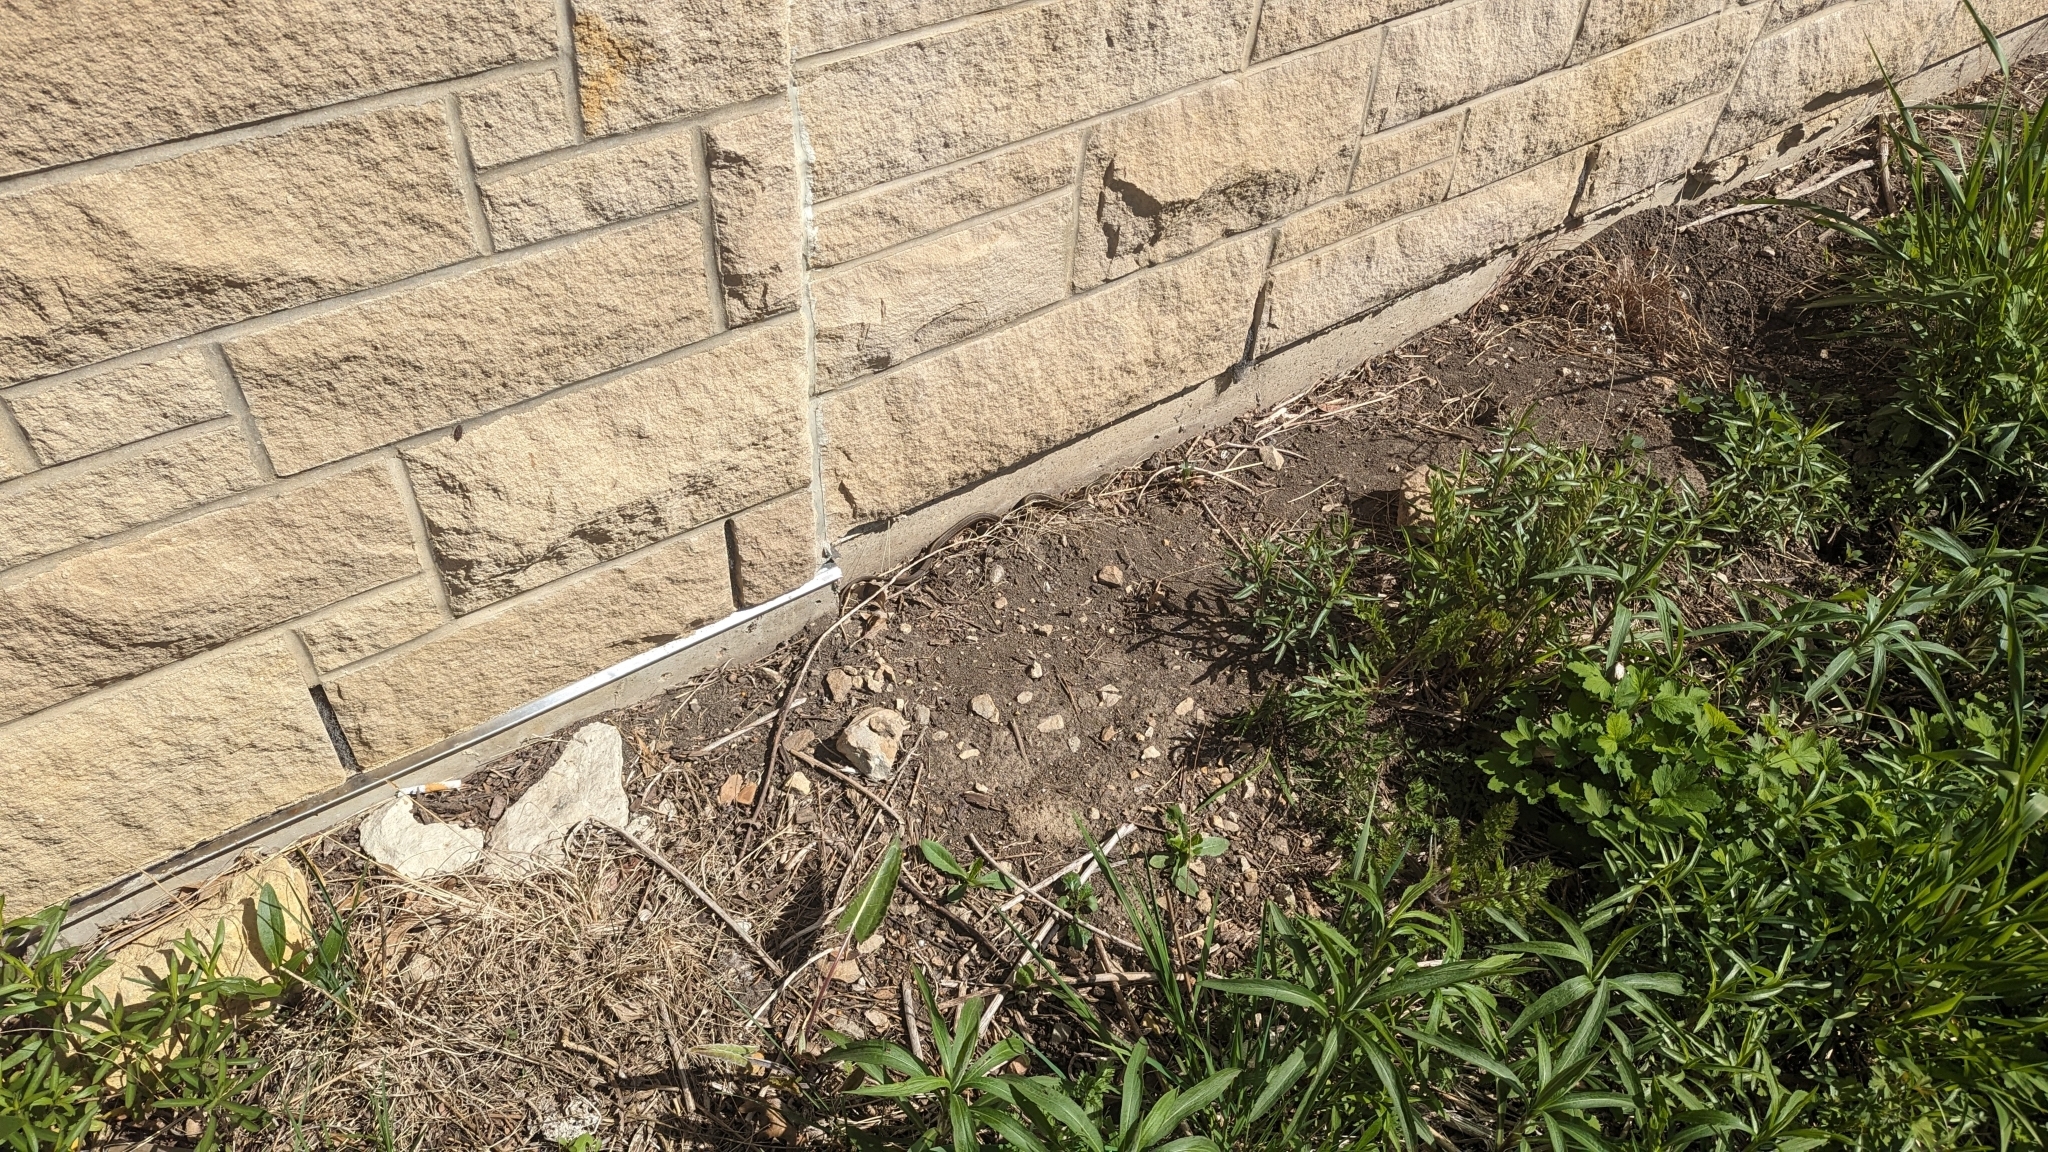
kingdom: Animalia
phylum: Chordata
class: Squamata
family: Colubridae
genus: Thamnophis
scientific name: Thamnophis sirtalis
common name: Common garter snake
